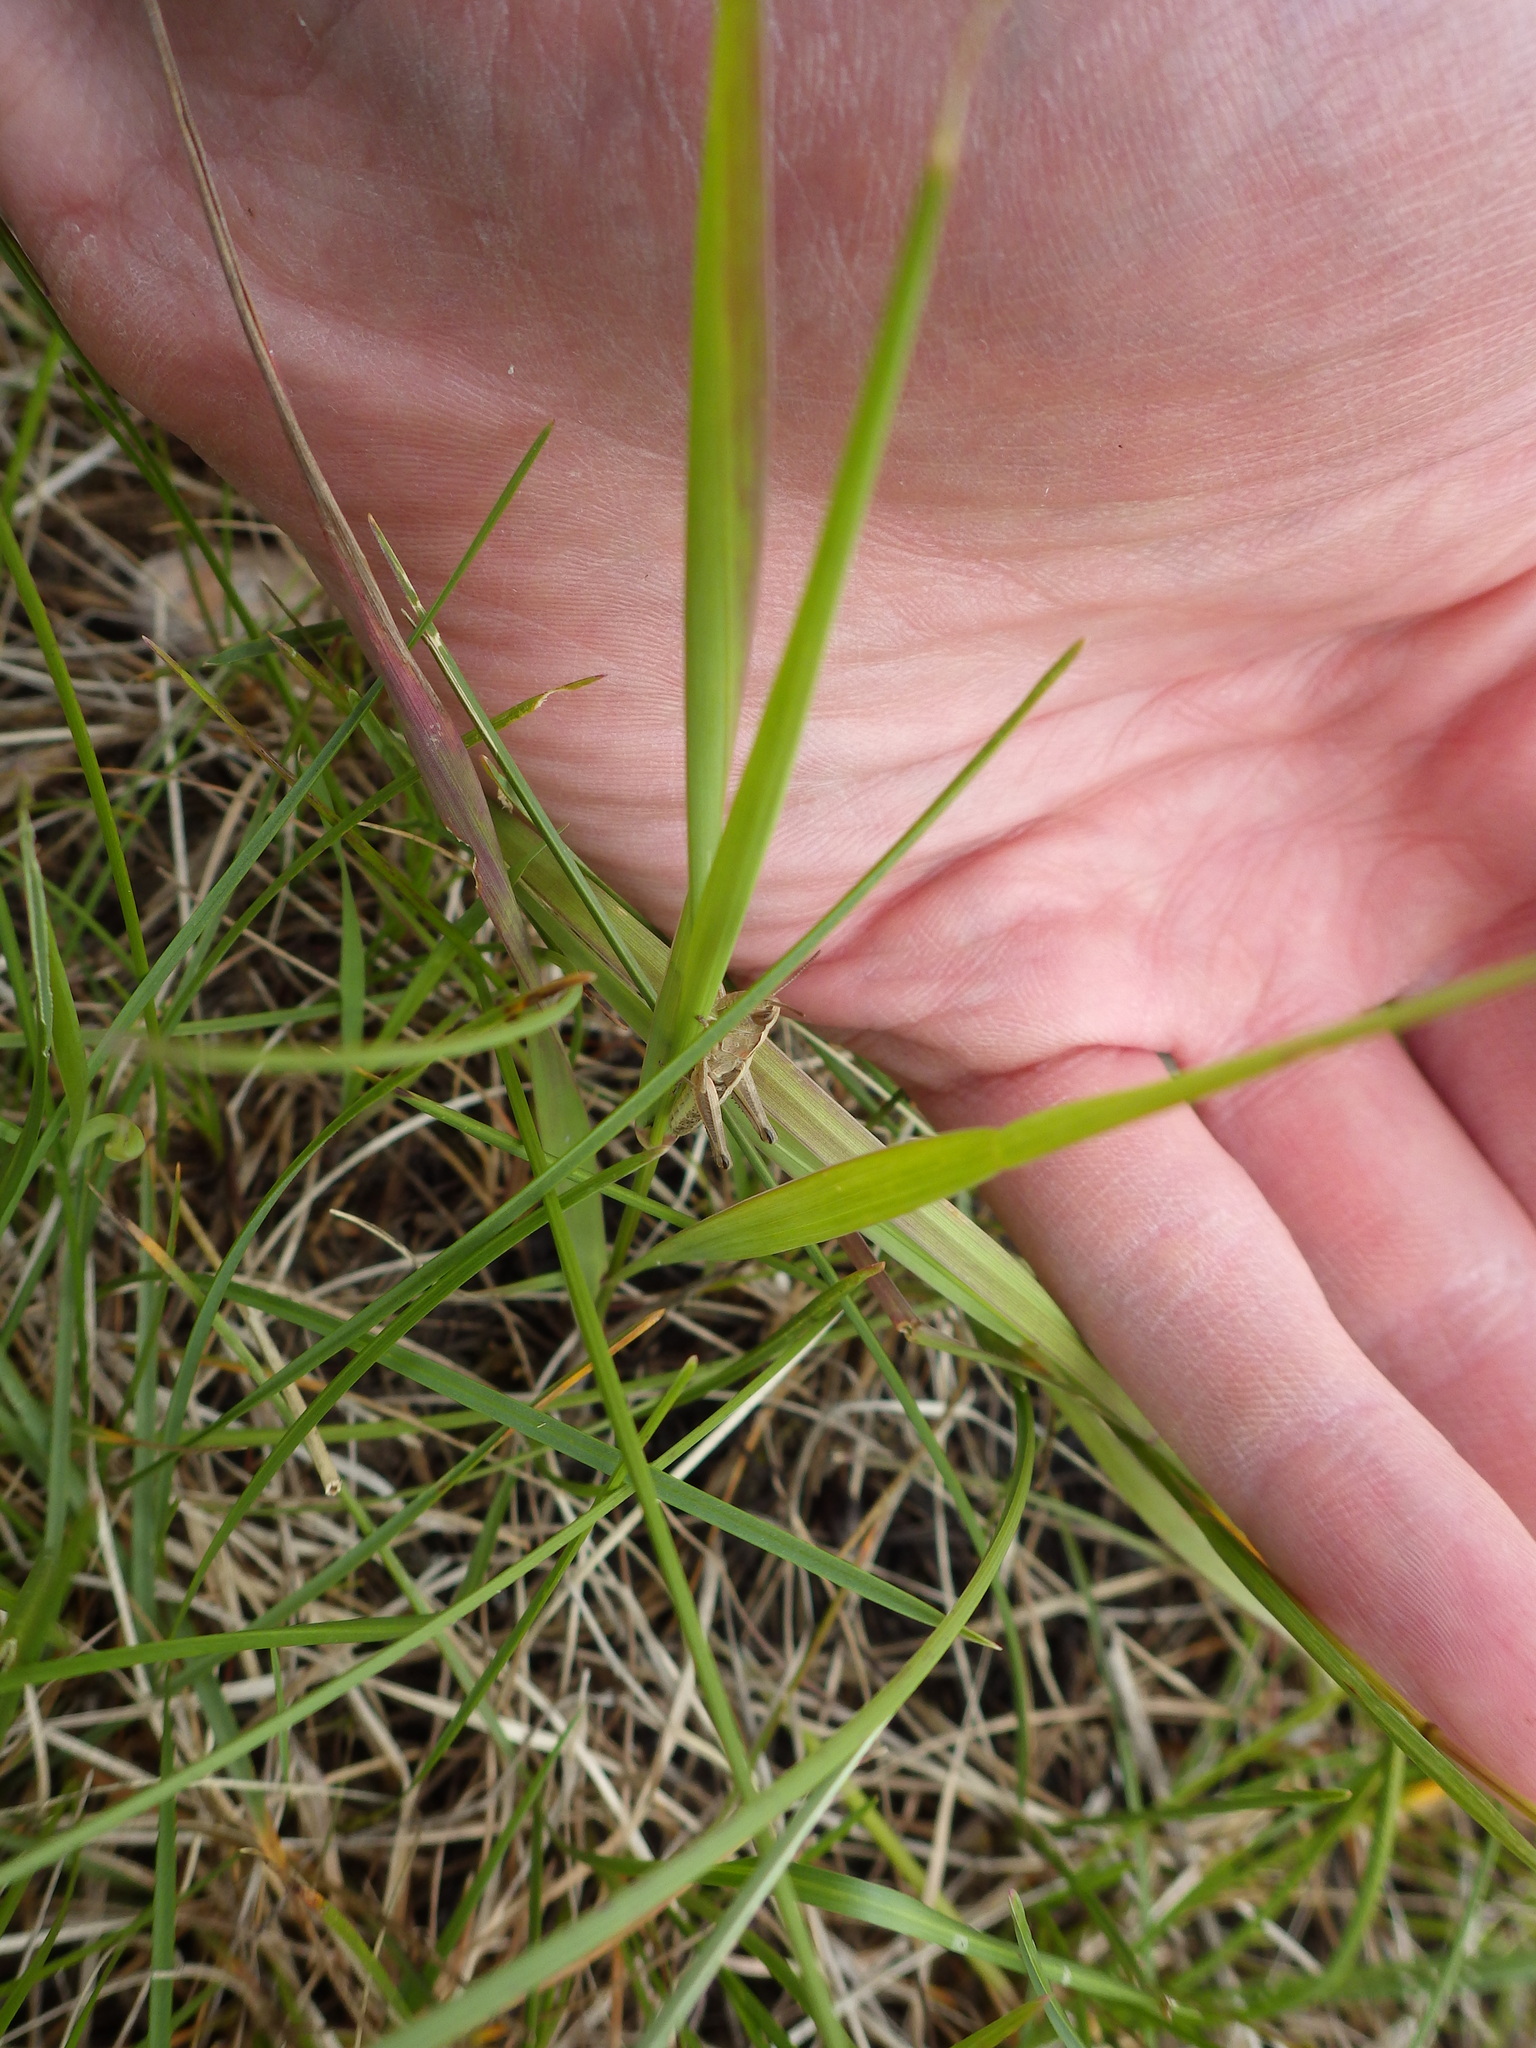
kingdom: Animalia
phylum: Arthropoda
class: Insecta
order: Orthoptera
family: Acrididae
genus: Pseudochorthippus
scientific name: Pseudochorthippus curtipennis
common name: Marsh meadow grasshopper
